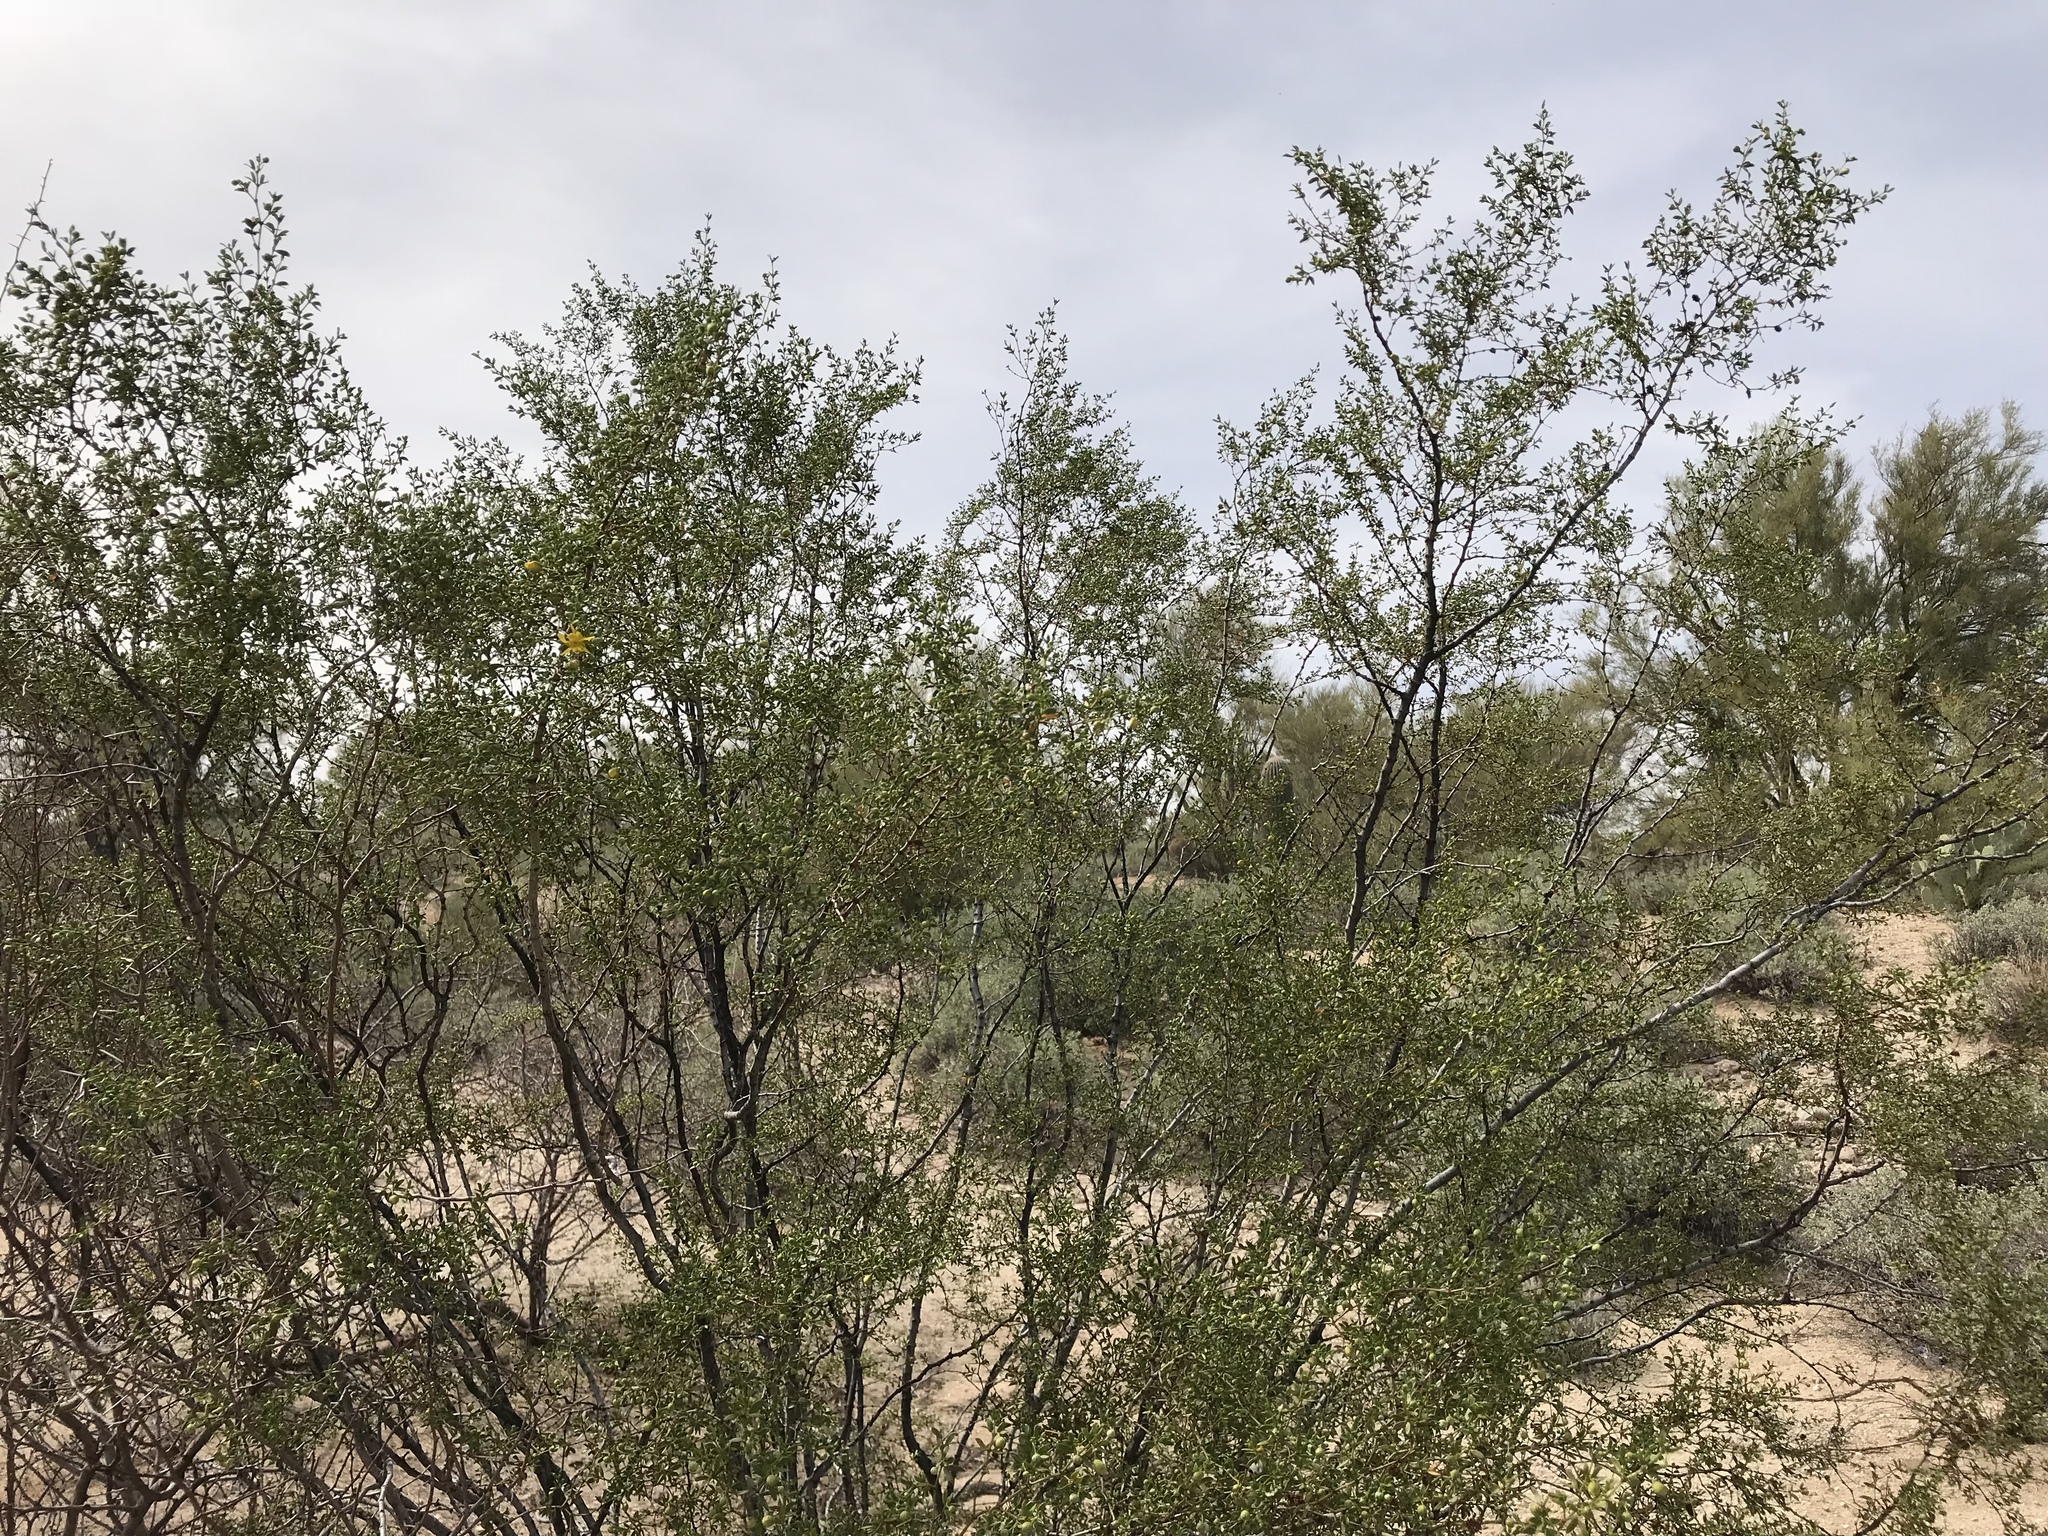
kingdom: Plantae
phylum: Tracheophyta
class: Magnoliopsida
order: Zygophyllales
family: Zygophyllaceae
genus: Larrea
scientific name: Larrea tridentata
